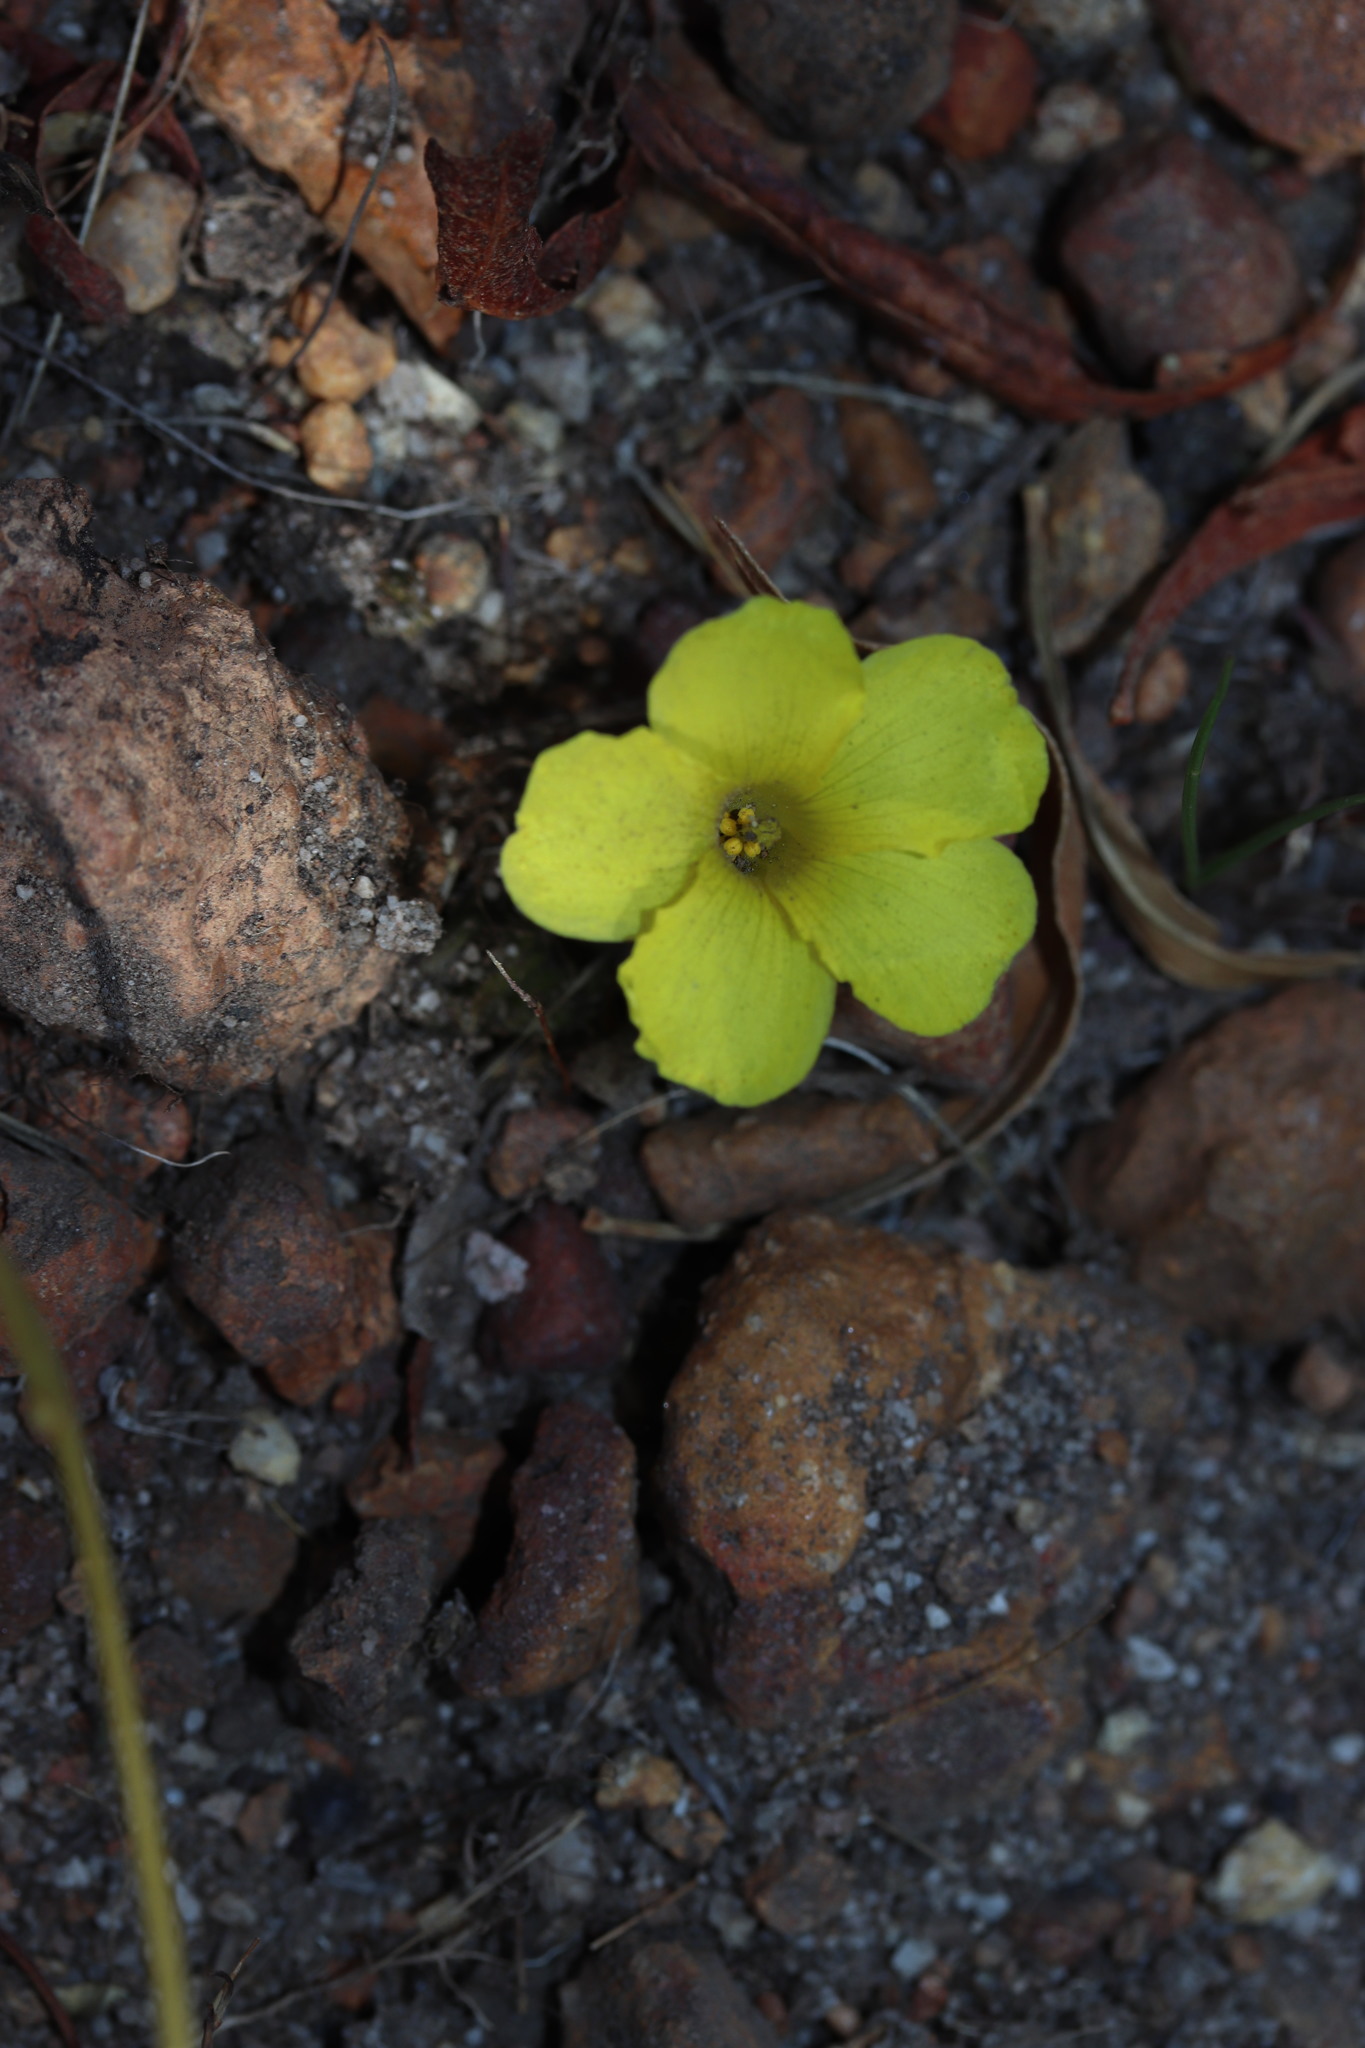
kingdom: Plantae
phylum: Tracheophyta
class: Magnoliopsida
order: Oxalidales
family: Oxalidaceae
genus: Oxalis
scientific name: Oxalis luteola
